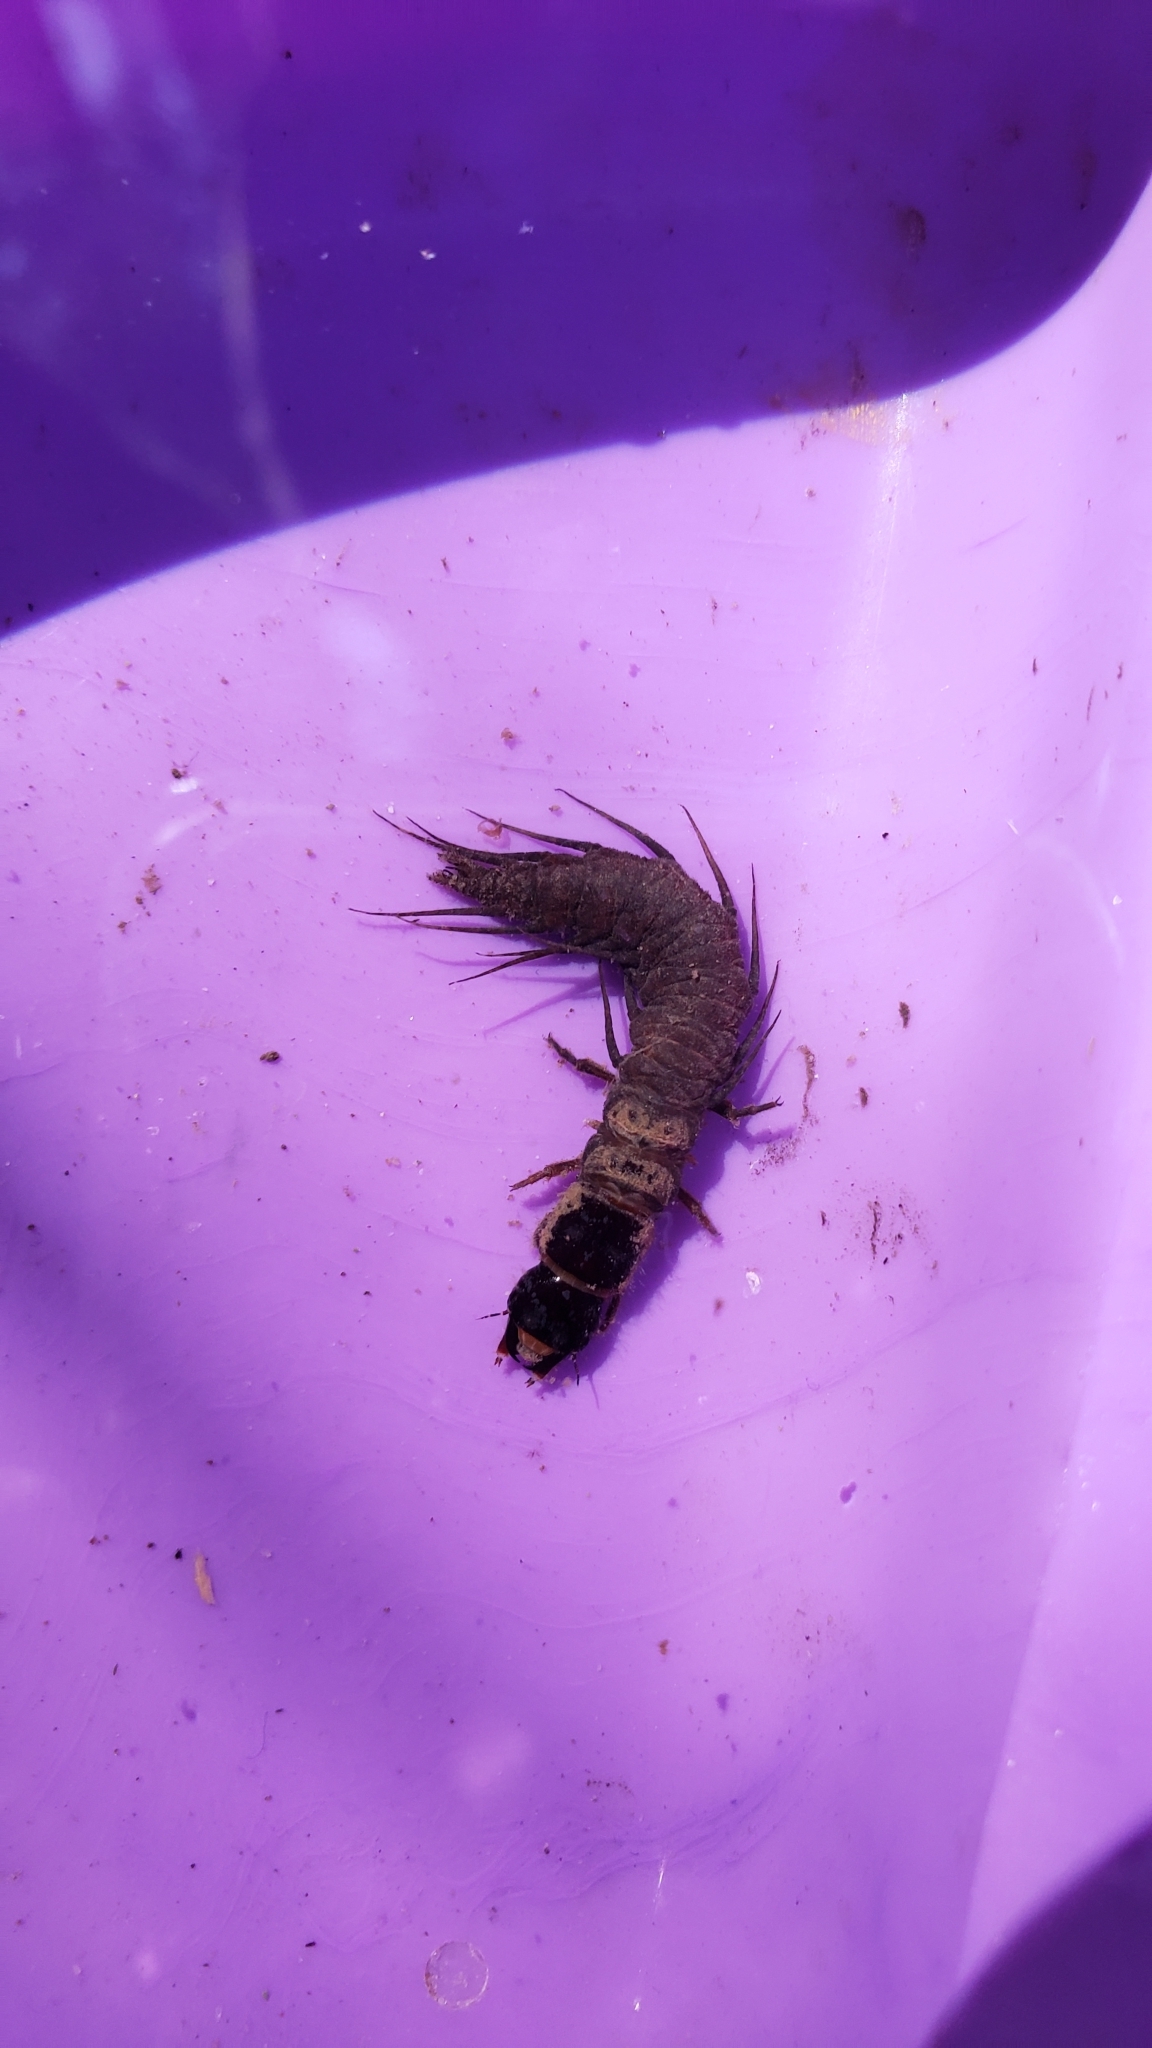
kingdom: Animalia
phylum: Arthropoda
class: Insecta
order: Megaloptera
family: Corydalidae
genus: Nigronia
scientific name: Nigronia serricornis
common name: Serrate dark fishfly
